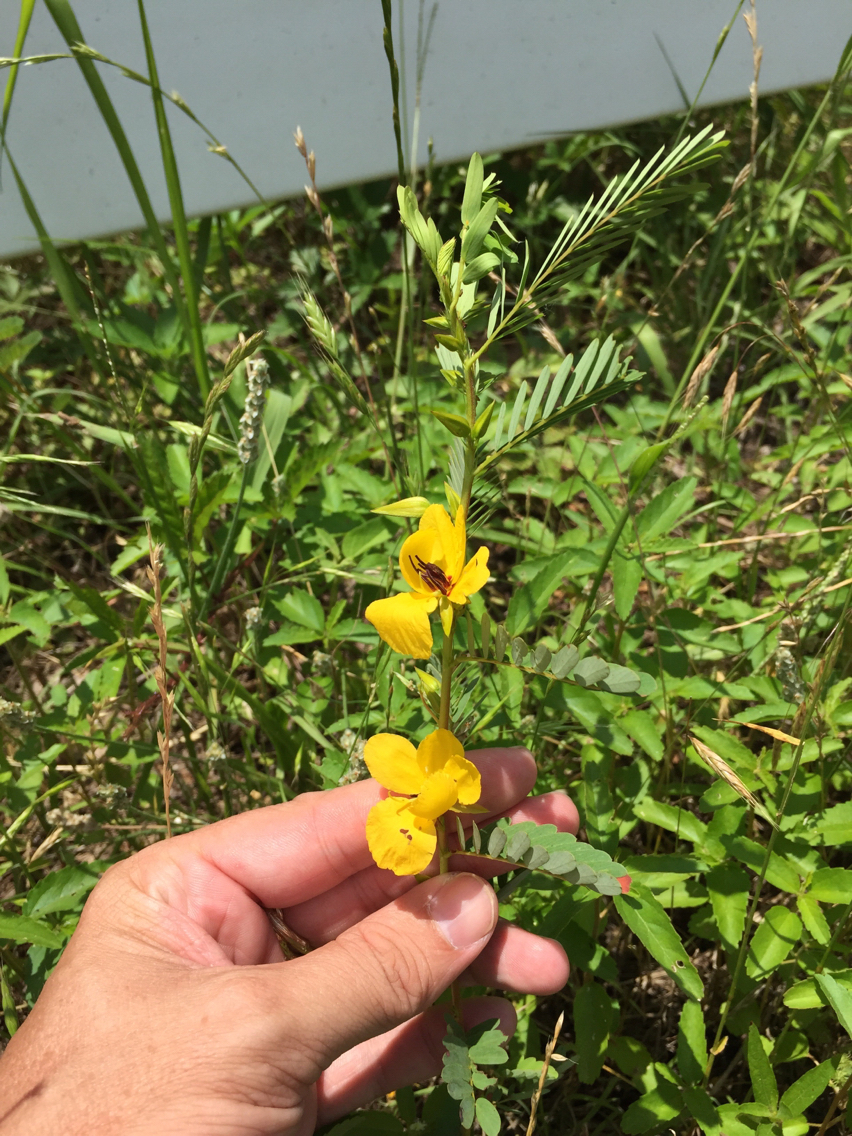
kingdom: Plantae
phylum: Tracheophyta
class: Magnoliopsida
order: Fabales
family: Fabaceae
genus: Chamaecrista
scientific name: Chamaecrista fasciculata
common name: Golden cassia
